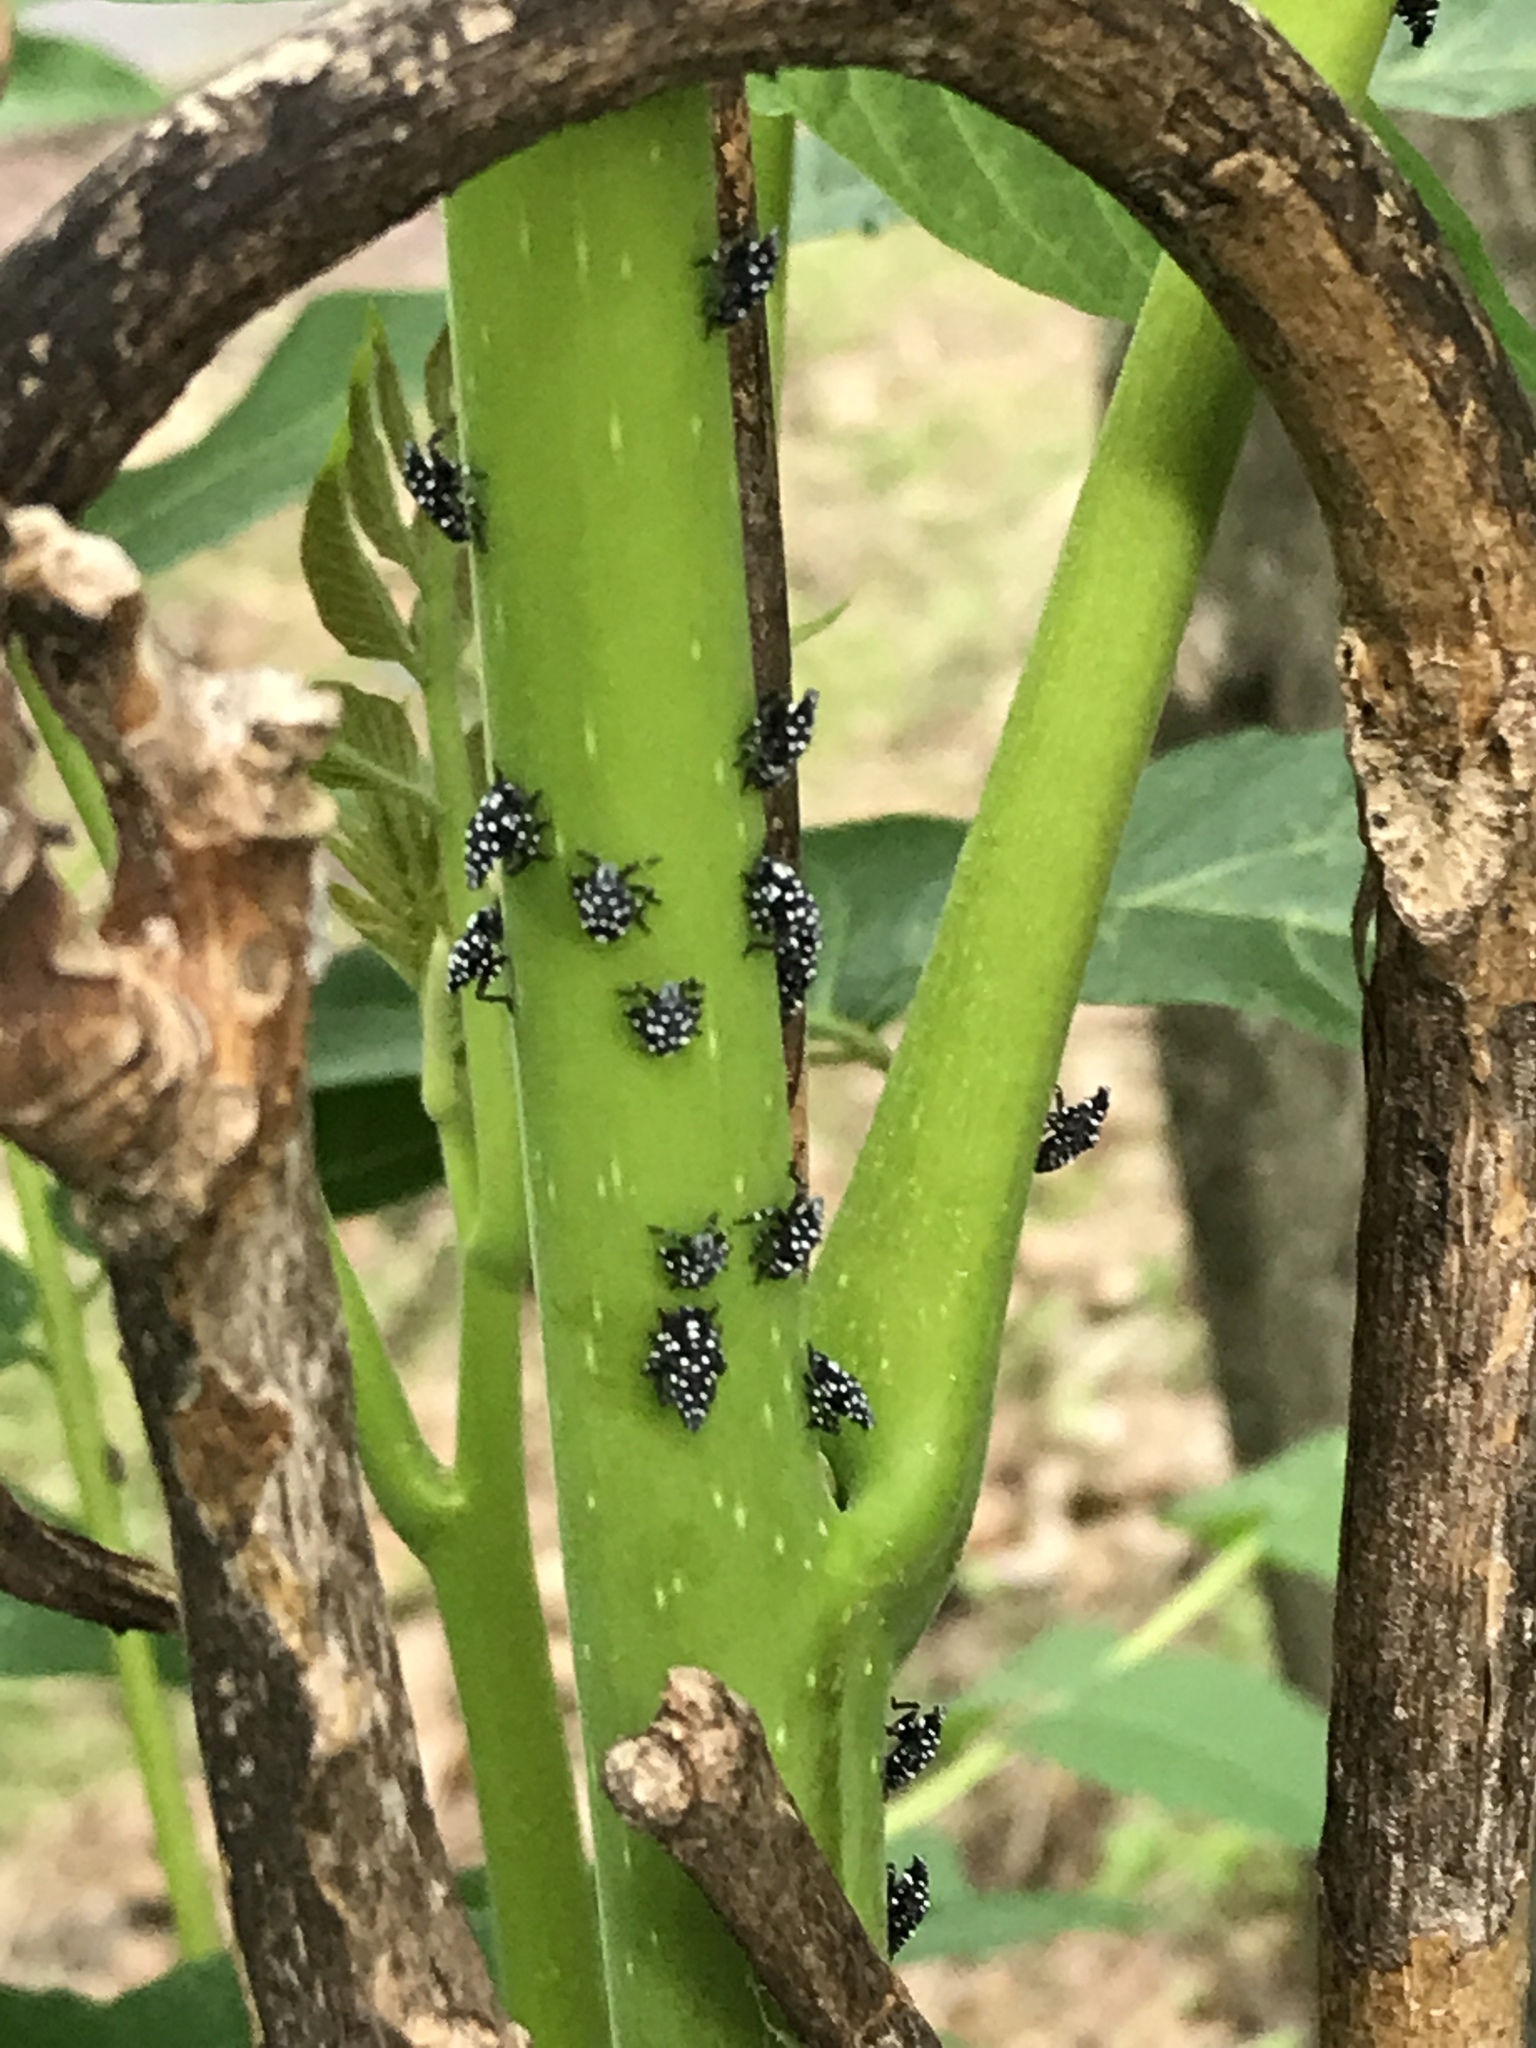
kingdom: Animalia
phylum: Arthropoda
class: Insecta
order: Hemiptera
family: Fulgoridae
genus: Lycorma
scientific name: Lycorma delicatula
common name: Spotted lanternfly
